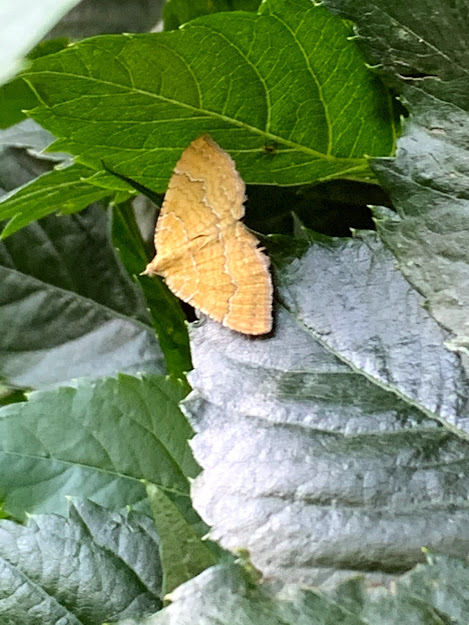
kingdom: Animalia
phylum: Arthropoda
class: Insecta
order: Lepidoptera
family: Geometridae
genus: Camptogramma
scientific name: Camptogramma bilineata
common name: Yellow shell
